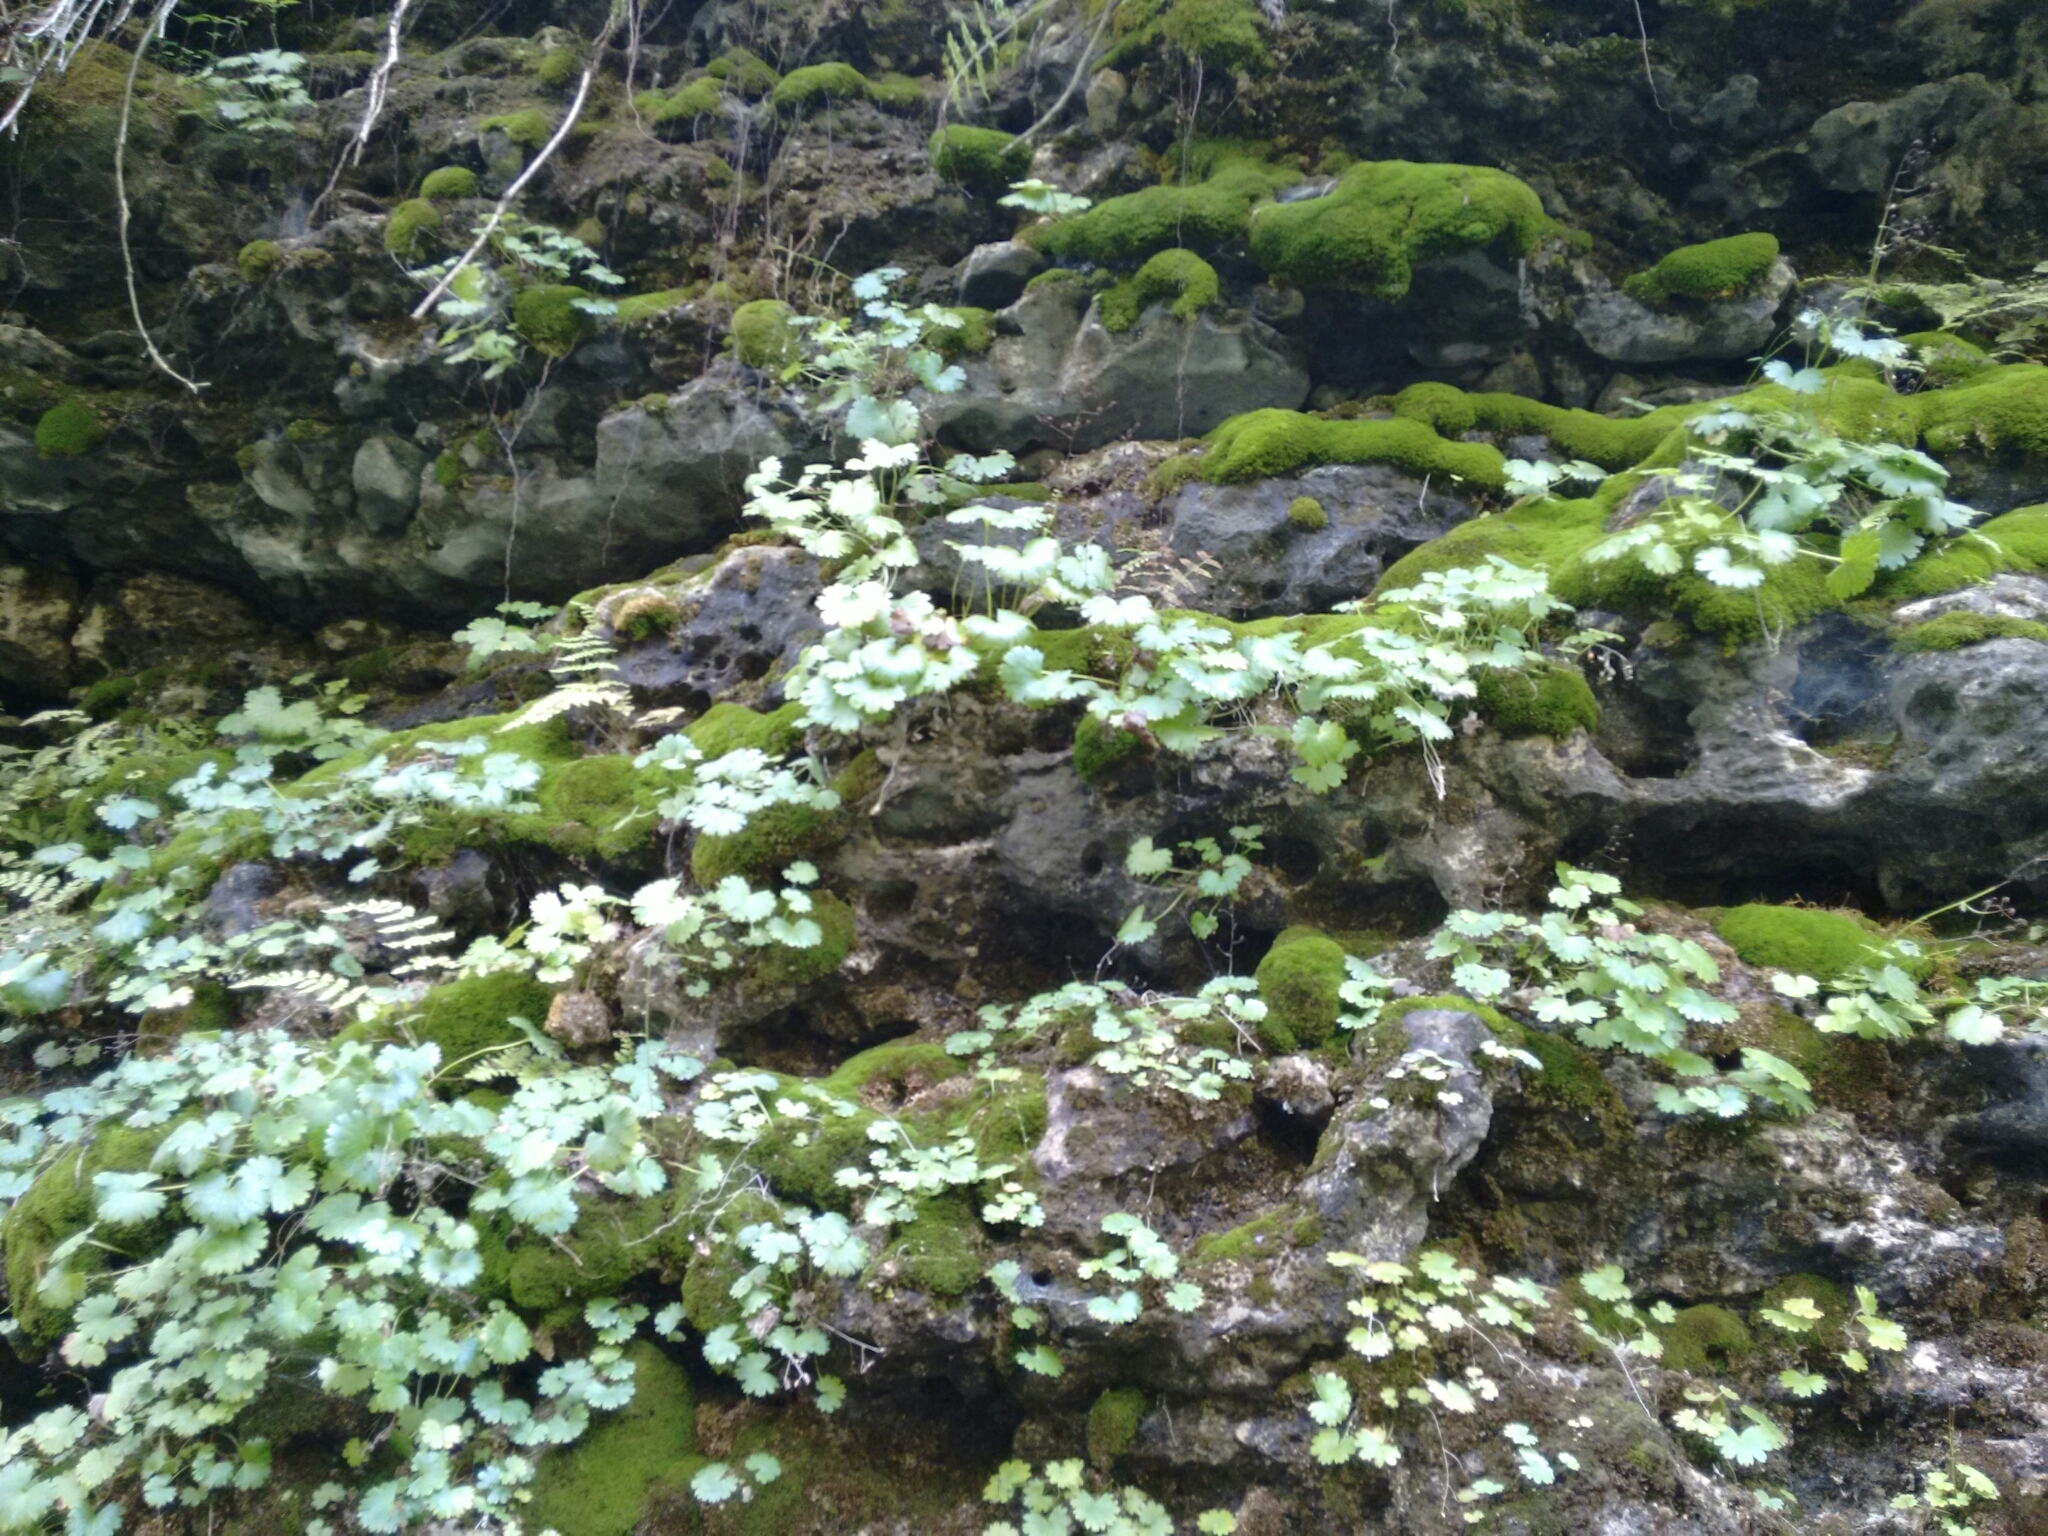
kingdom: Plantae
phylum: Tracheophyta
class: Magnoliopsida
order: Saxifragales
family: Saxifragaceae
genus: Sullivantia
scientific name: Sullivantia sullivantii
